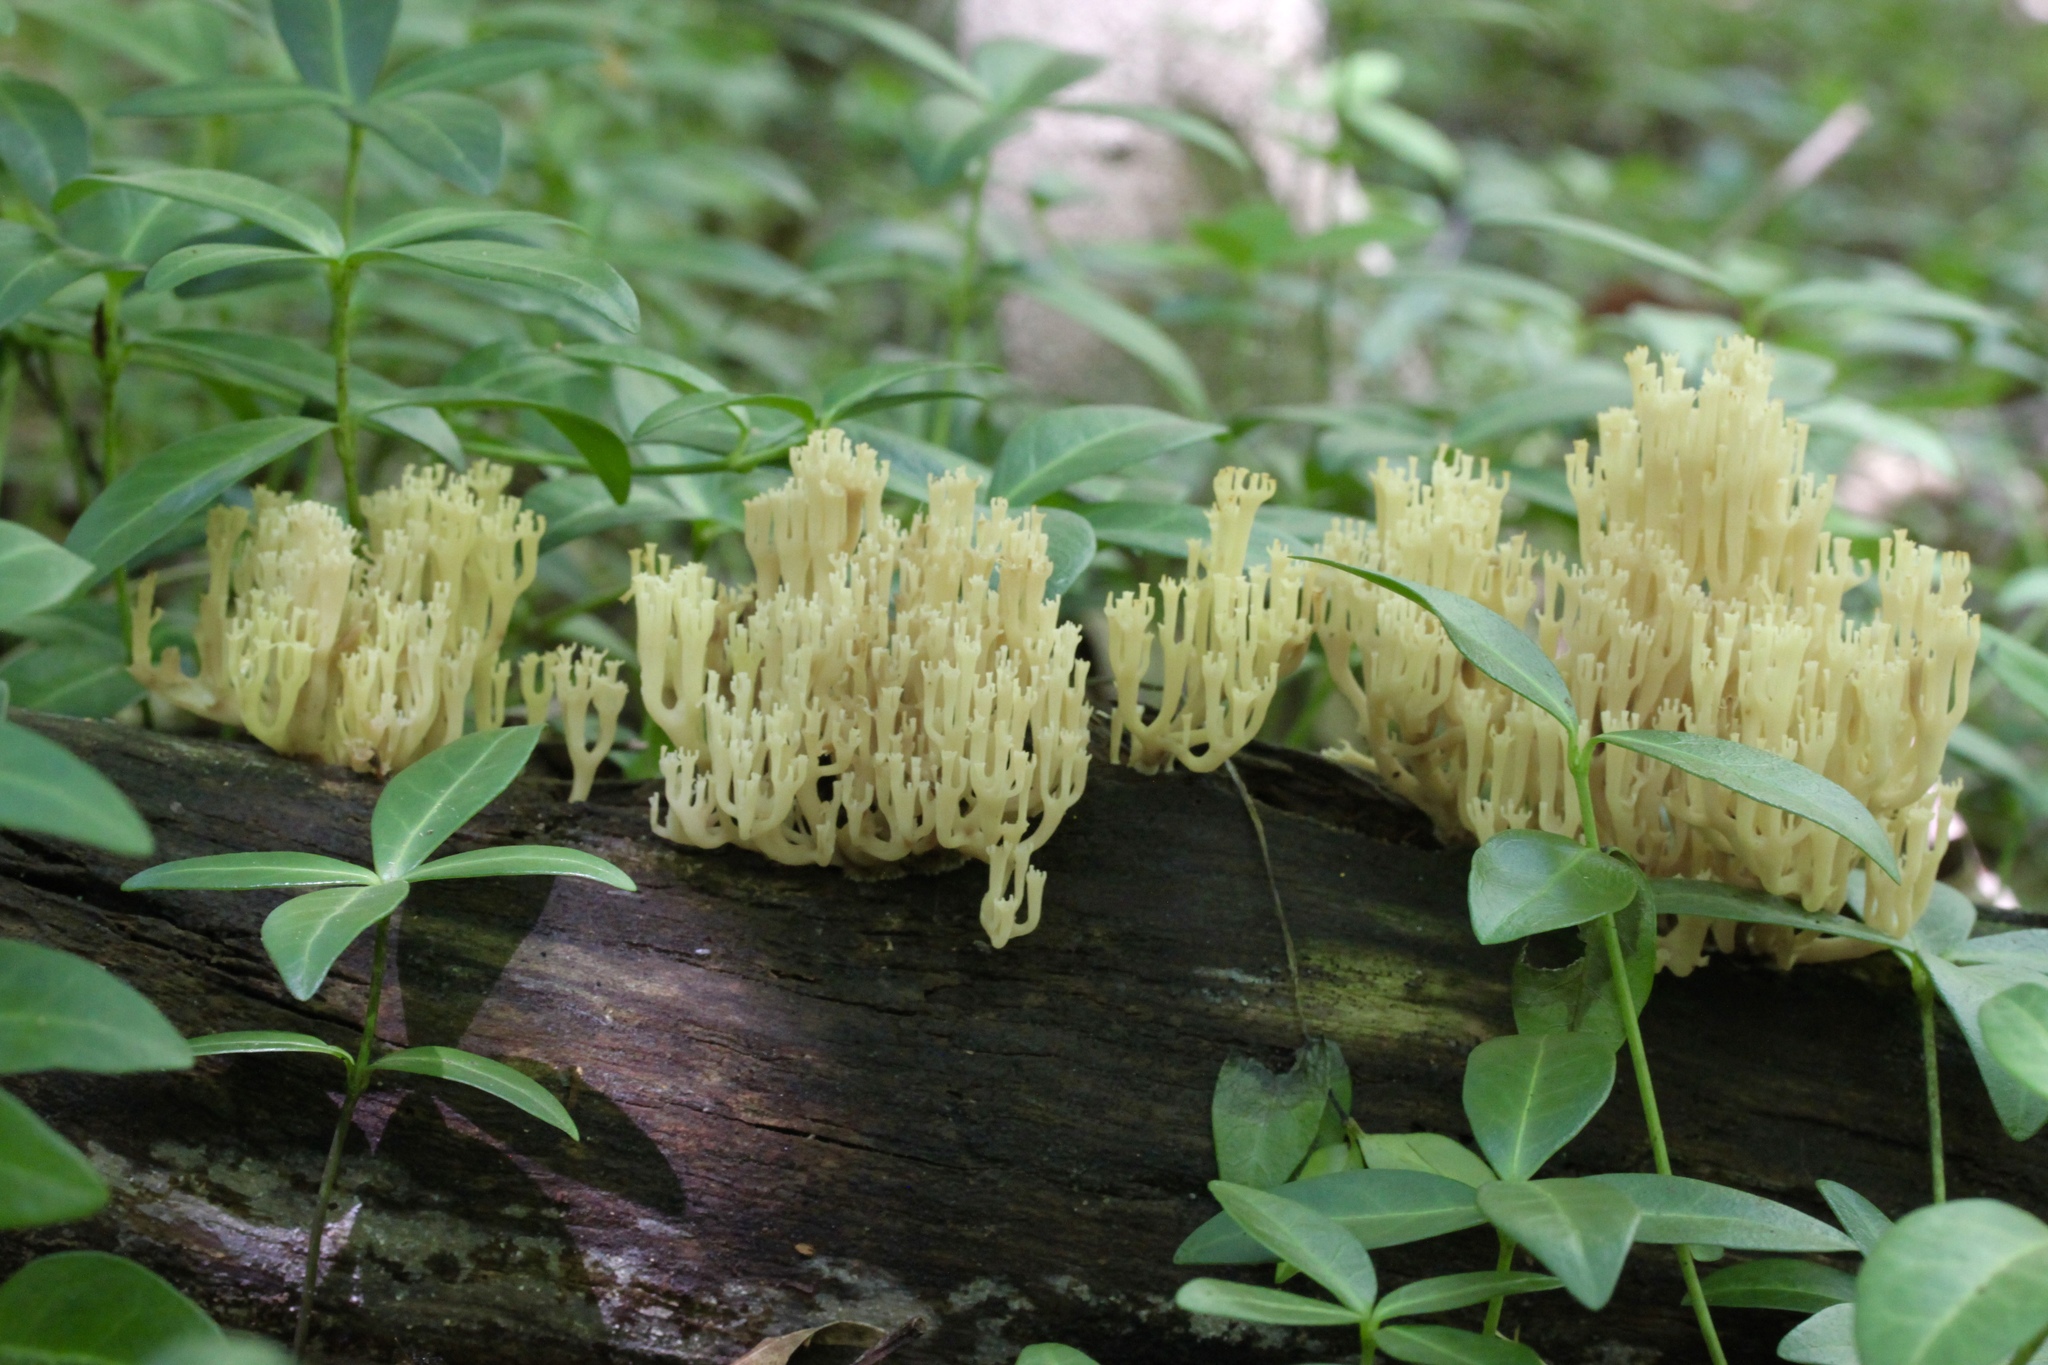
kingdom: Fungi
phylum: Basidiomycota
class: Agaricomycetes
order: Russulales
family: Auriscalpiaceae
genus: Artomyces
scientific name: Artomyces pyxidatus
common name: Crown-tipped coral fungus
